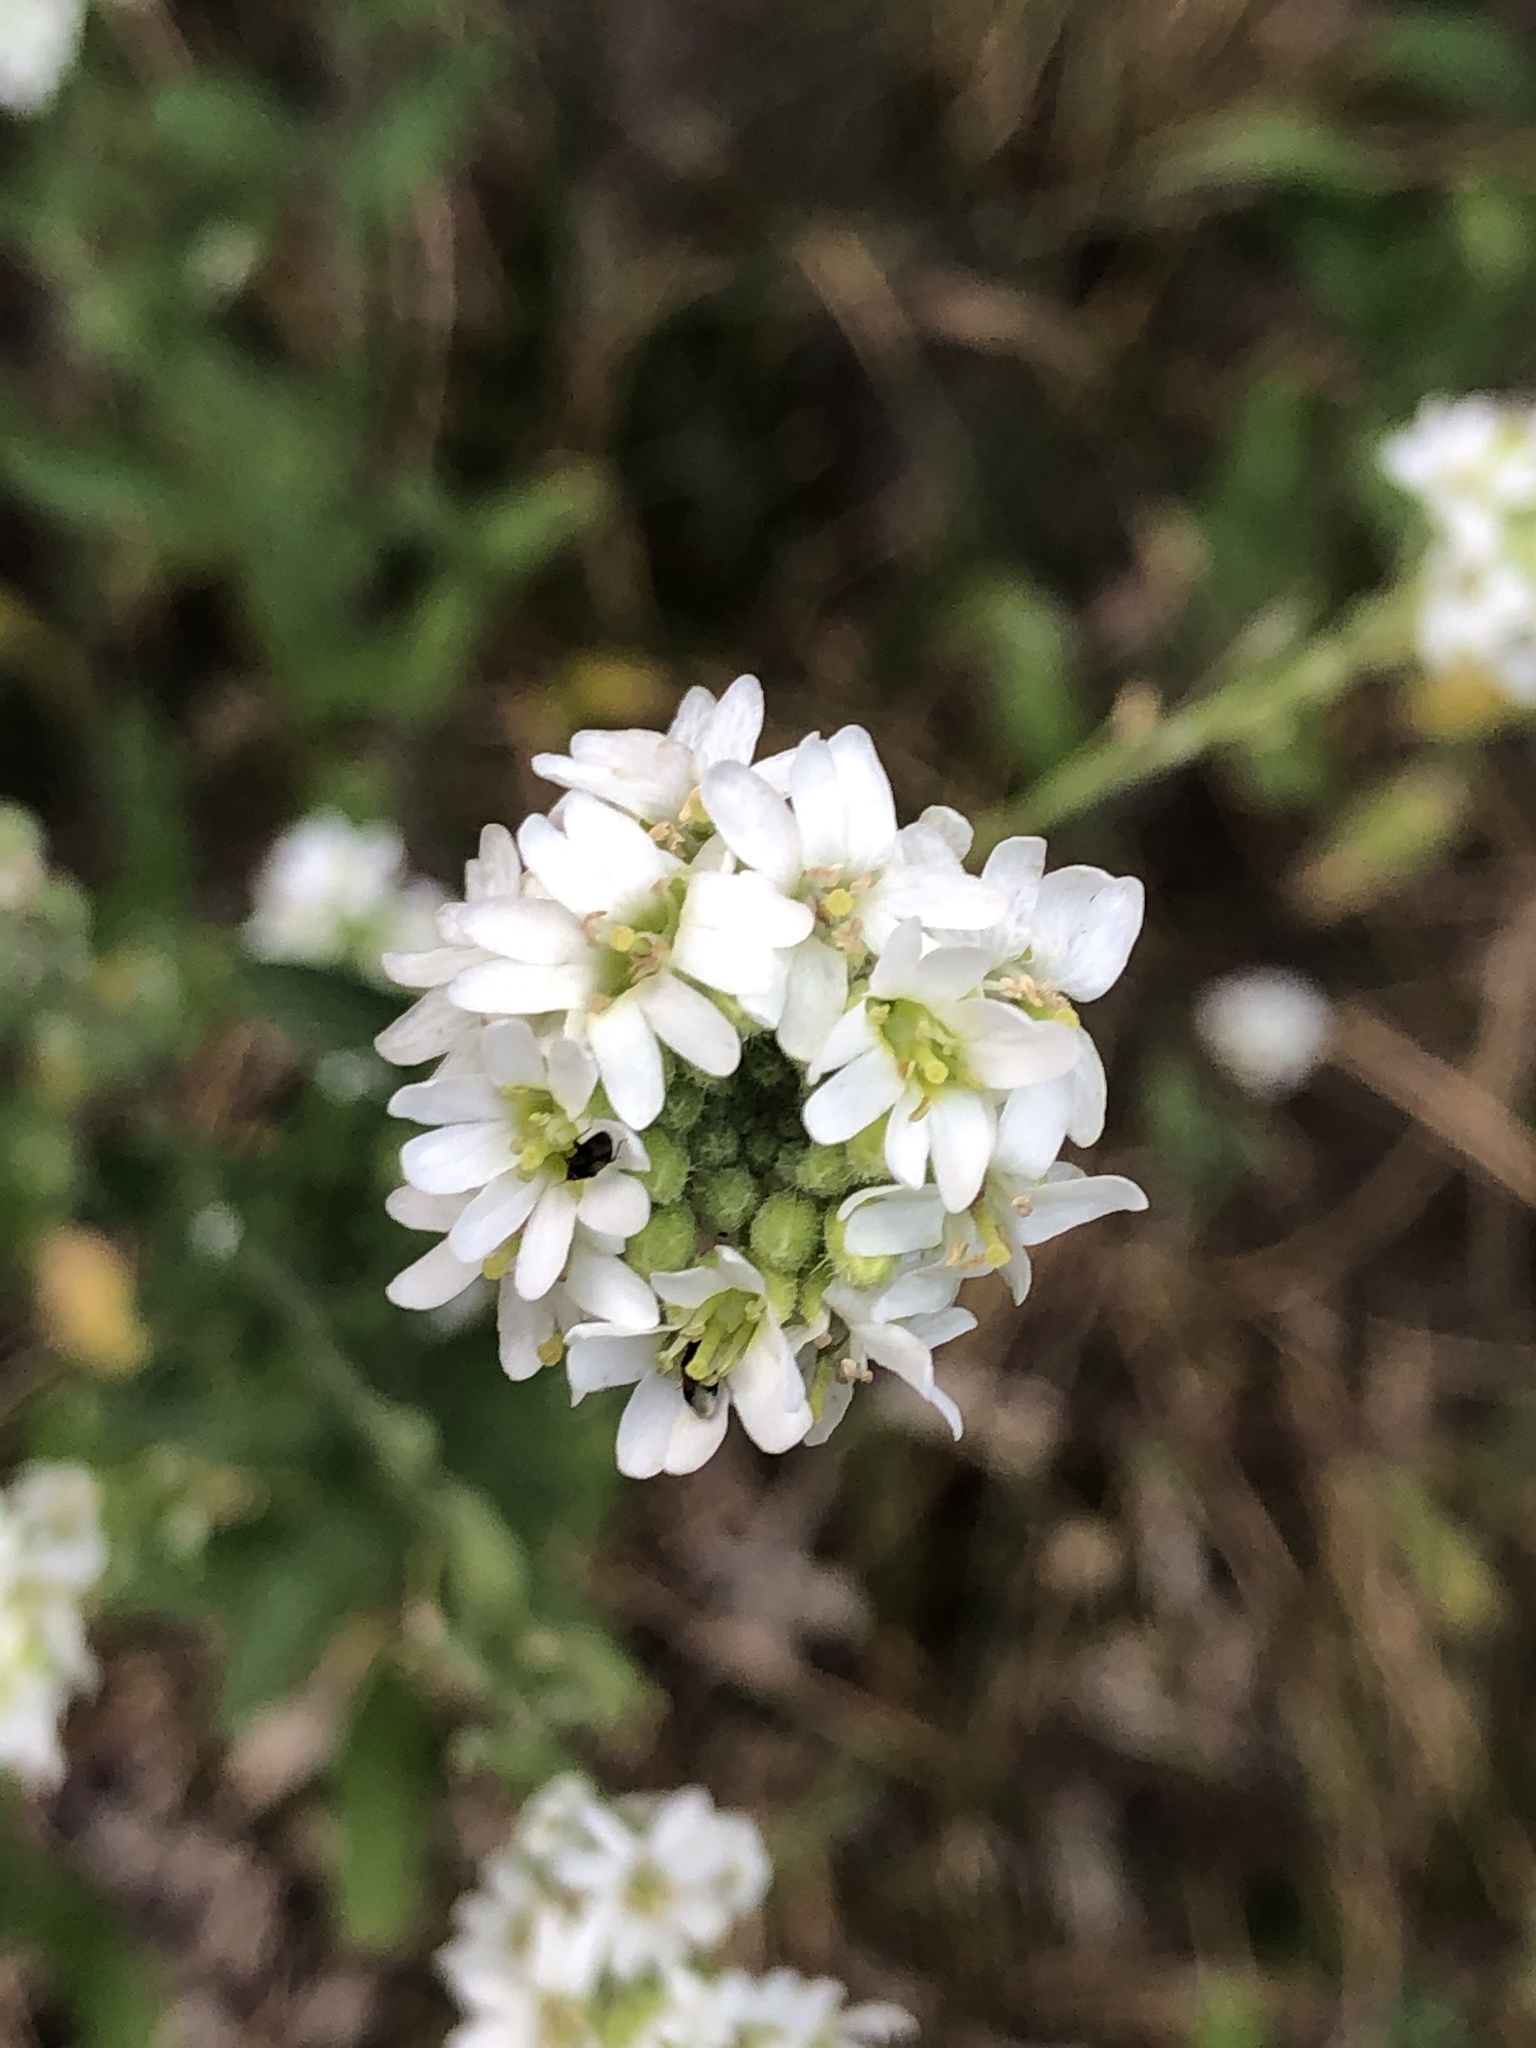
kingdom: Plantae
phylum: Tracheophyta
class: Magnoliopsida
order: Brassicales
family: Brassicaceae
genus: Berteroa
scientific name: Berteroa incana
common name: Hoary alison
